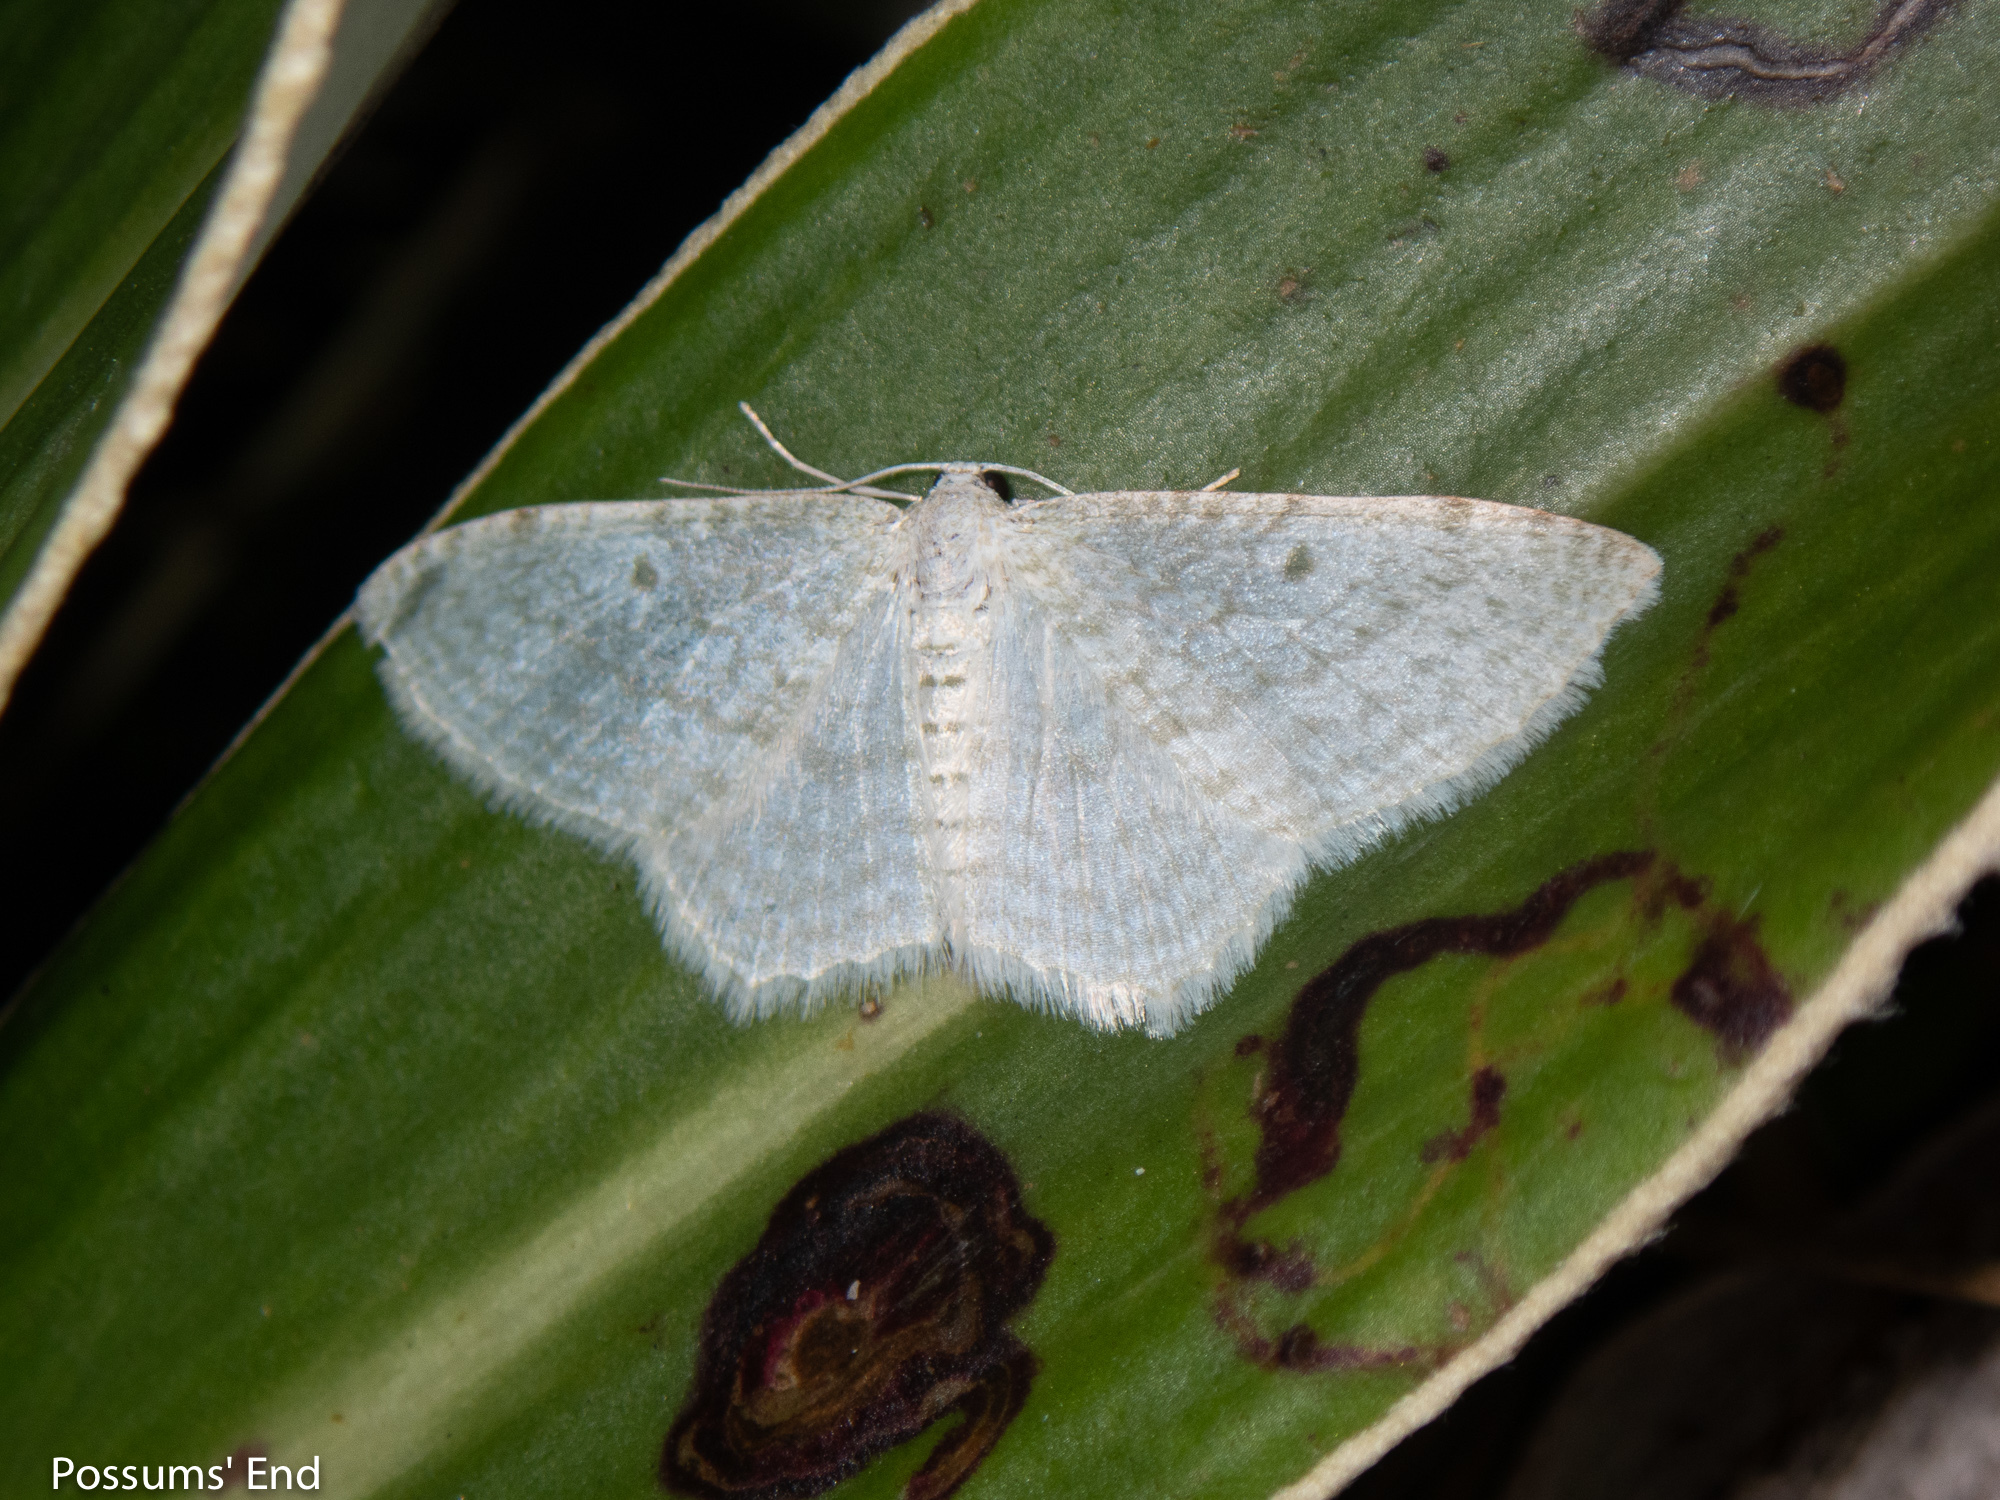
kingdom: Animalia
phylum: Arthropoda
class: Insecta
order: Lepidoptera
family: Geometridae
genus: Poecilasthena
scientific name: Poecilasthena pulchraria
